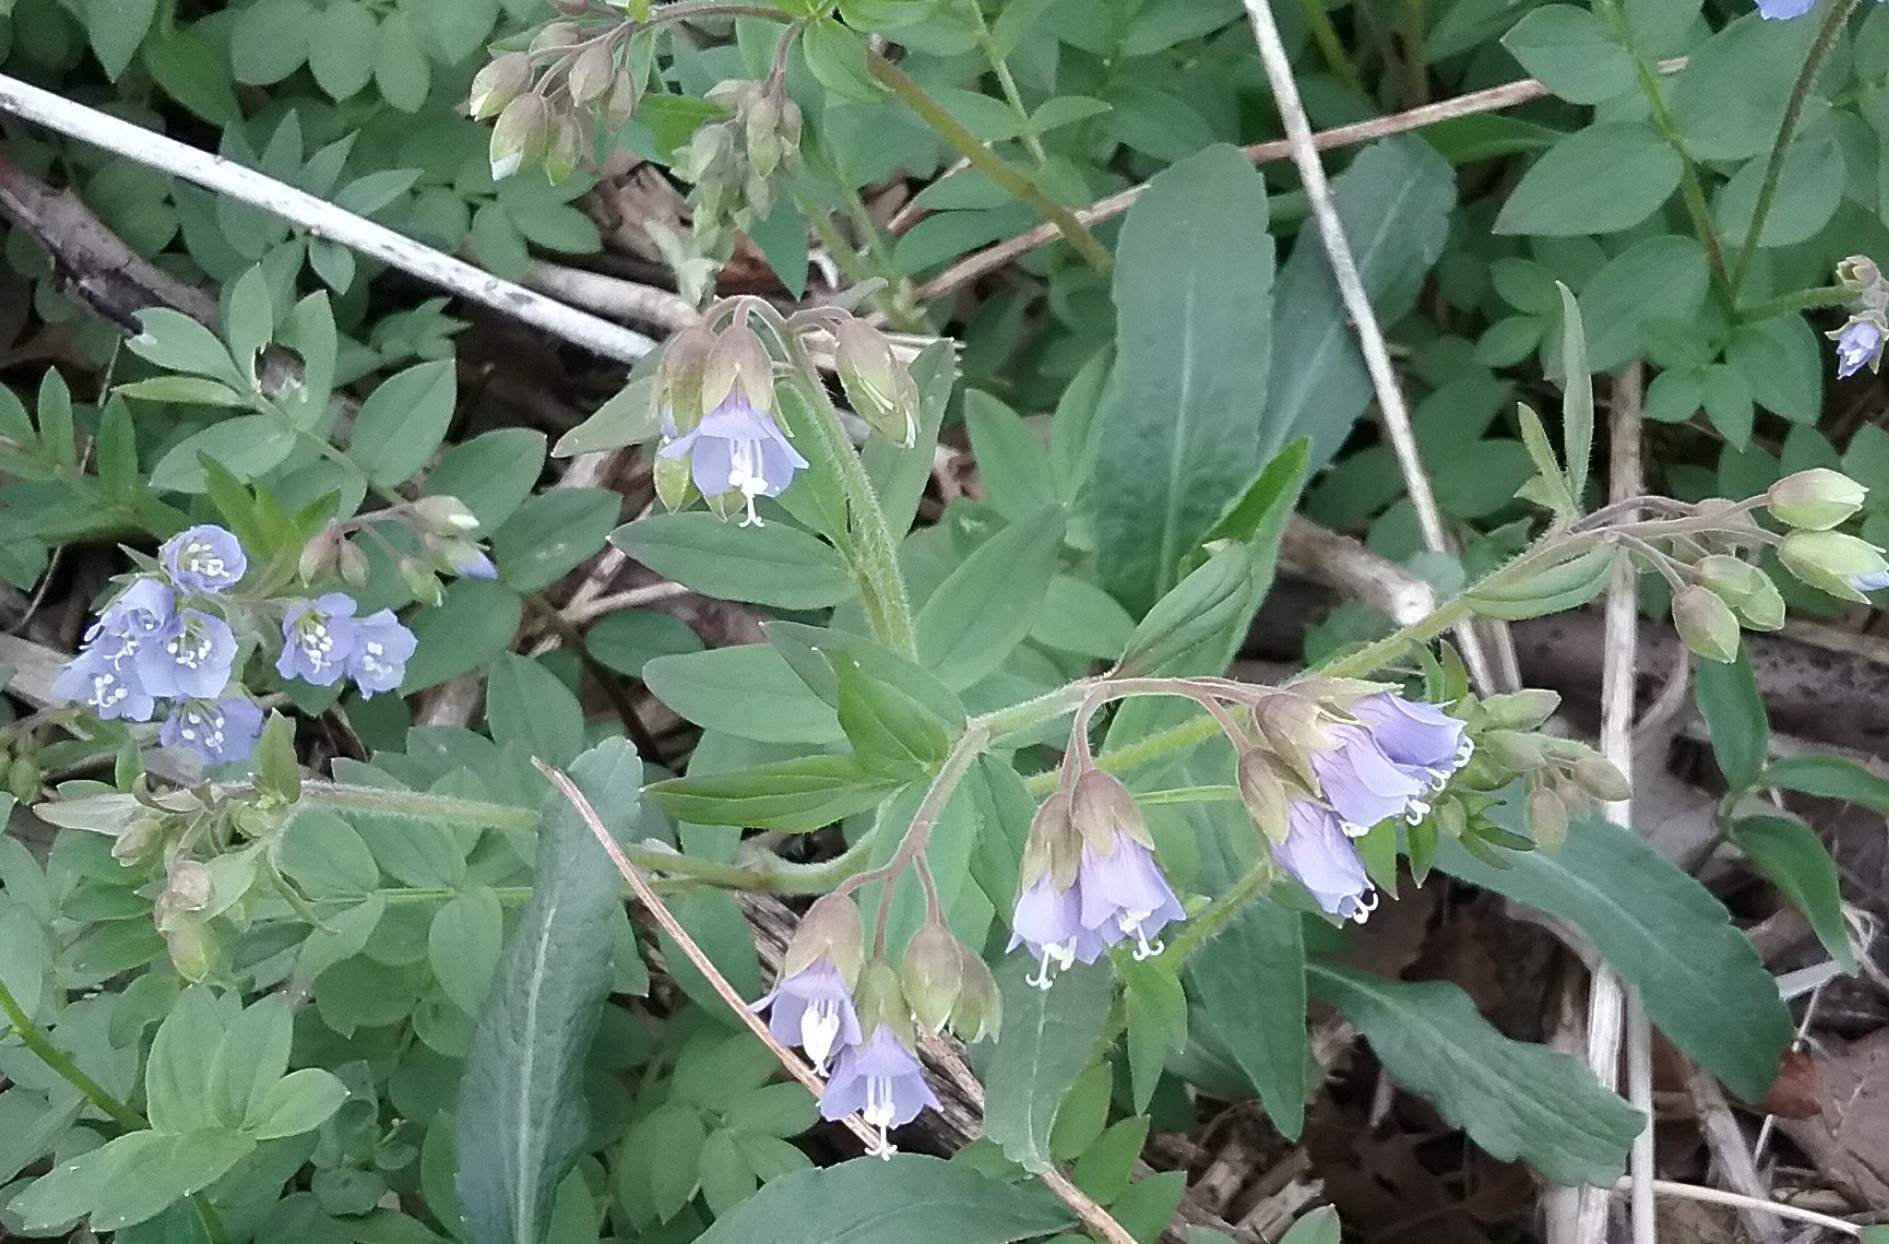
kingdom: Plantae
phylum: Tracheophyta
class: Magnoliopsida
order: Ericales
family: Polemoniaceae
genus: Polemonium
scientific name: Polemonium reptans
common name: Creeping jacob's-ladder
